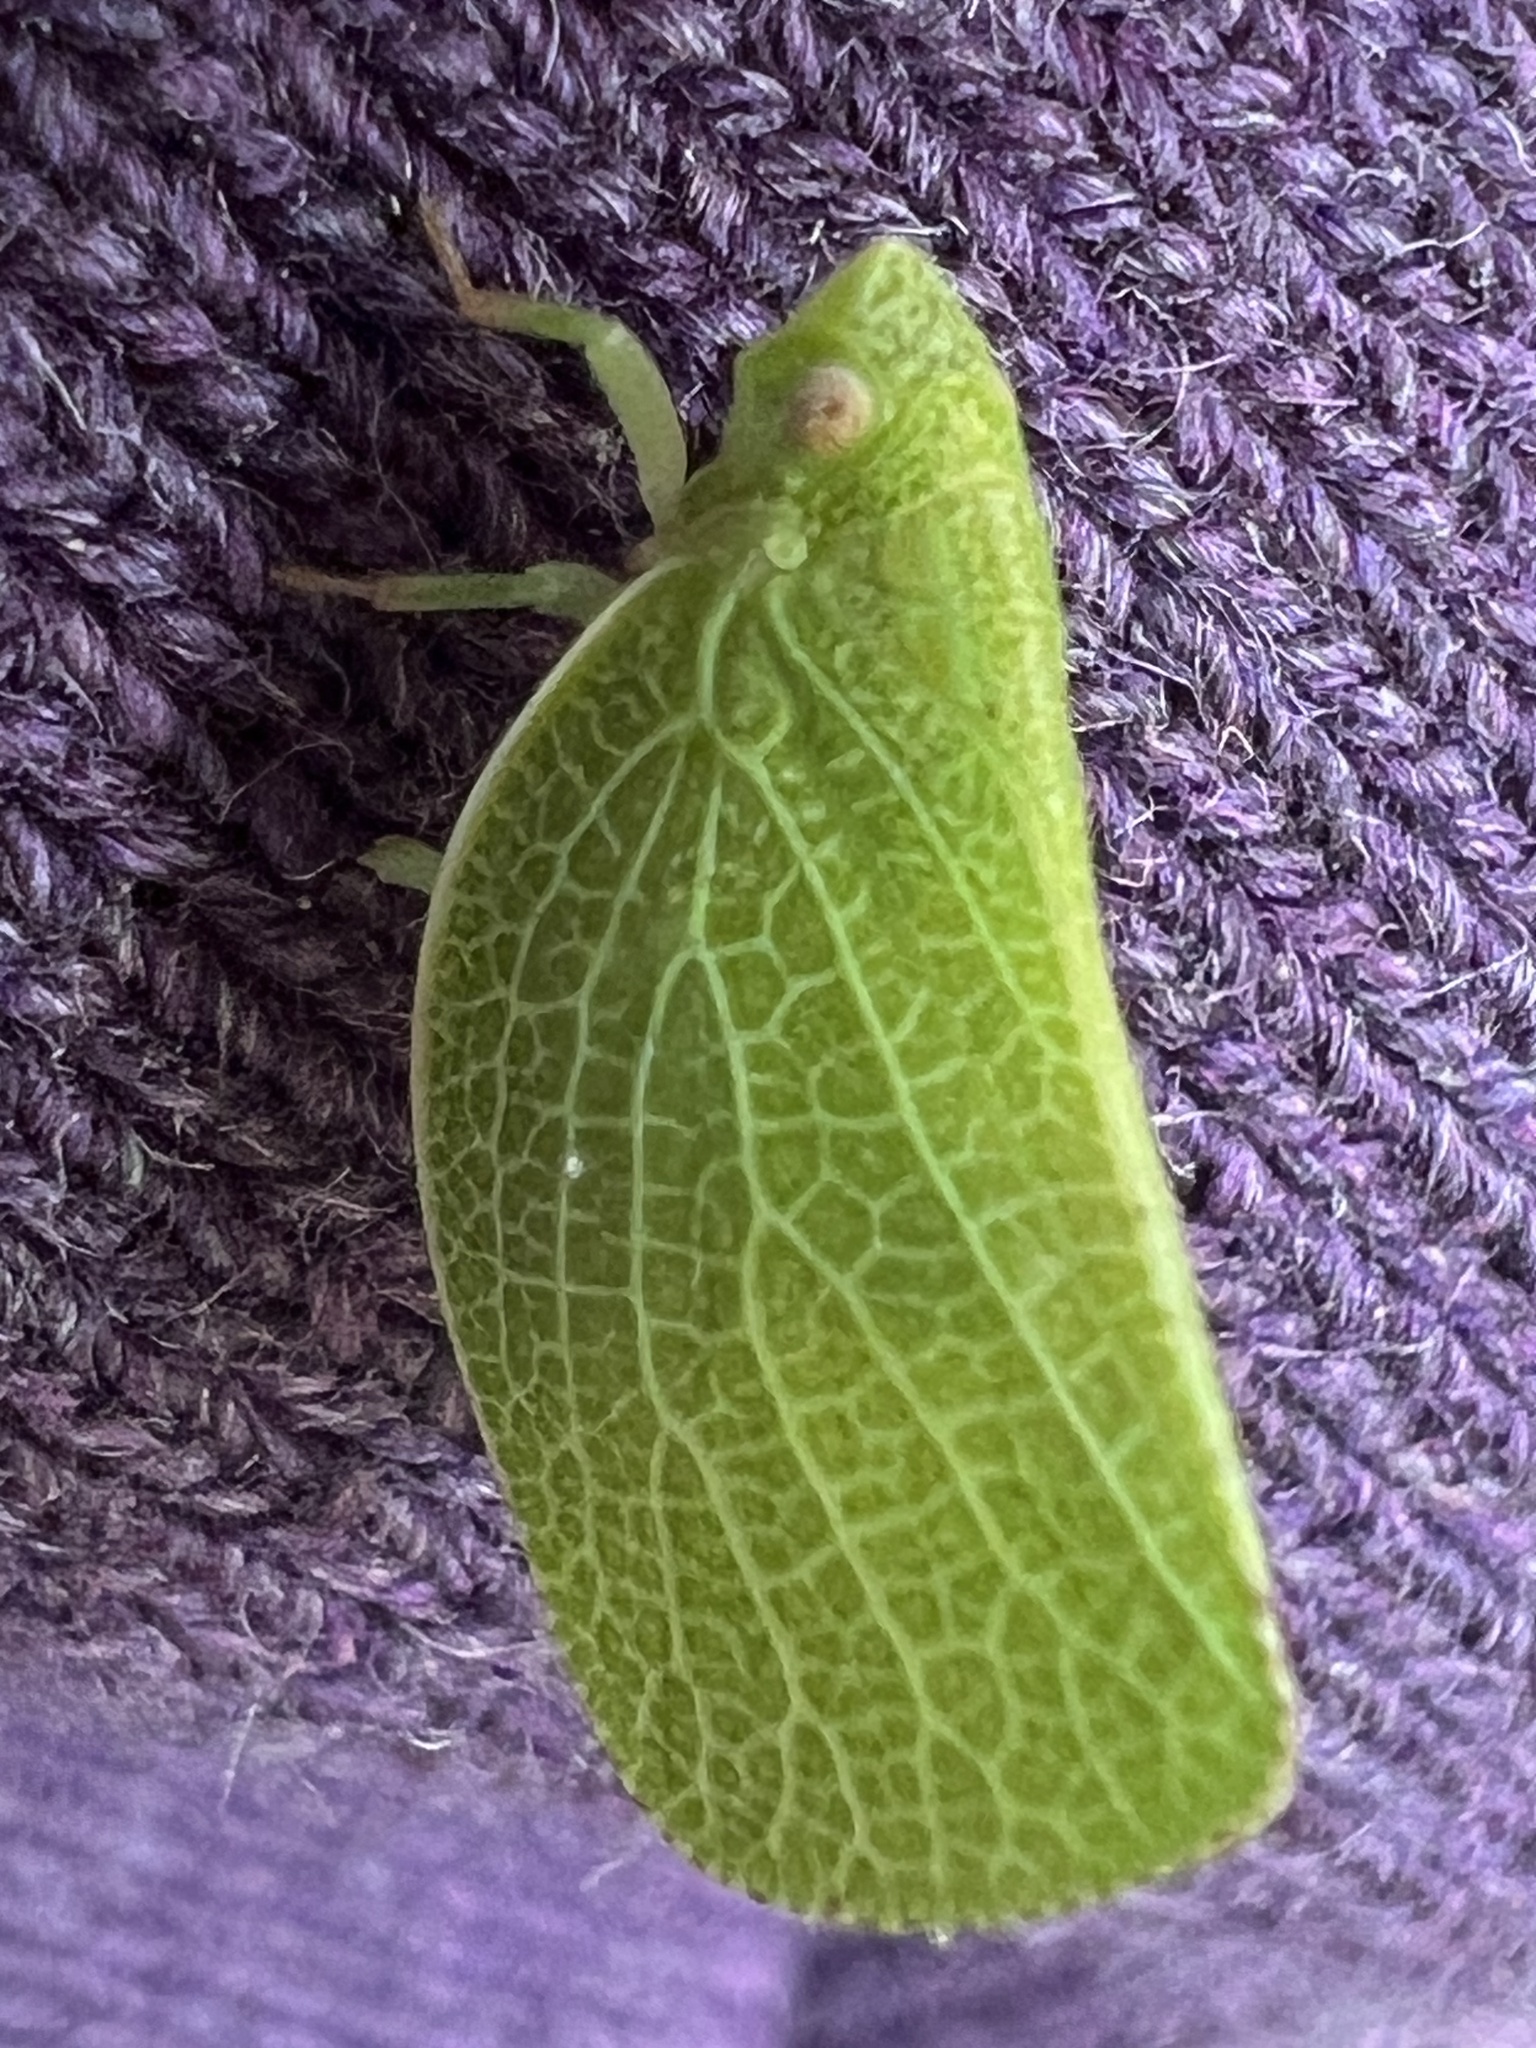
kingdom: Animalia
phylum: Arthropoda
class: Insecta
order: Hemiptera
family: Acanaloniidae
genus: Acanalonia
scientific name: Acanalonia conica
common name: Green cone-headed planthopper
